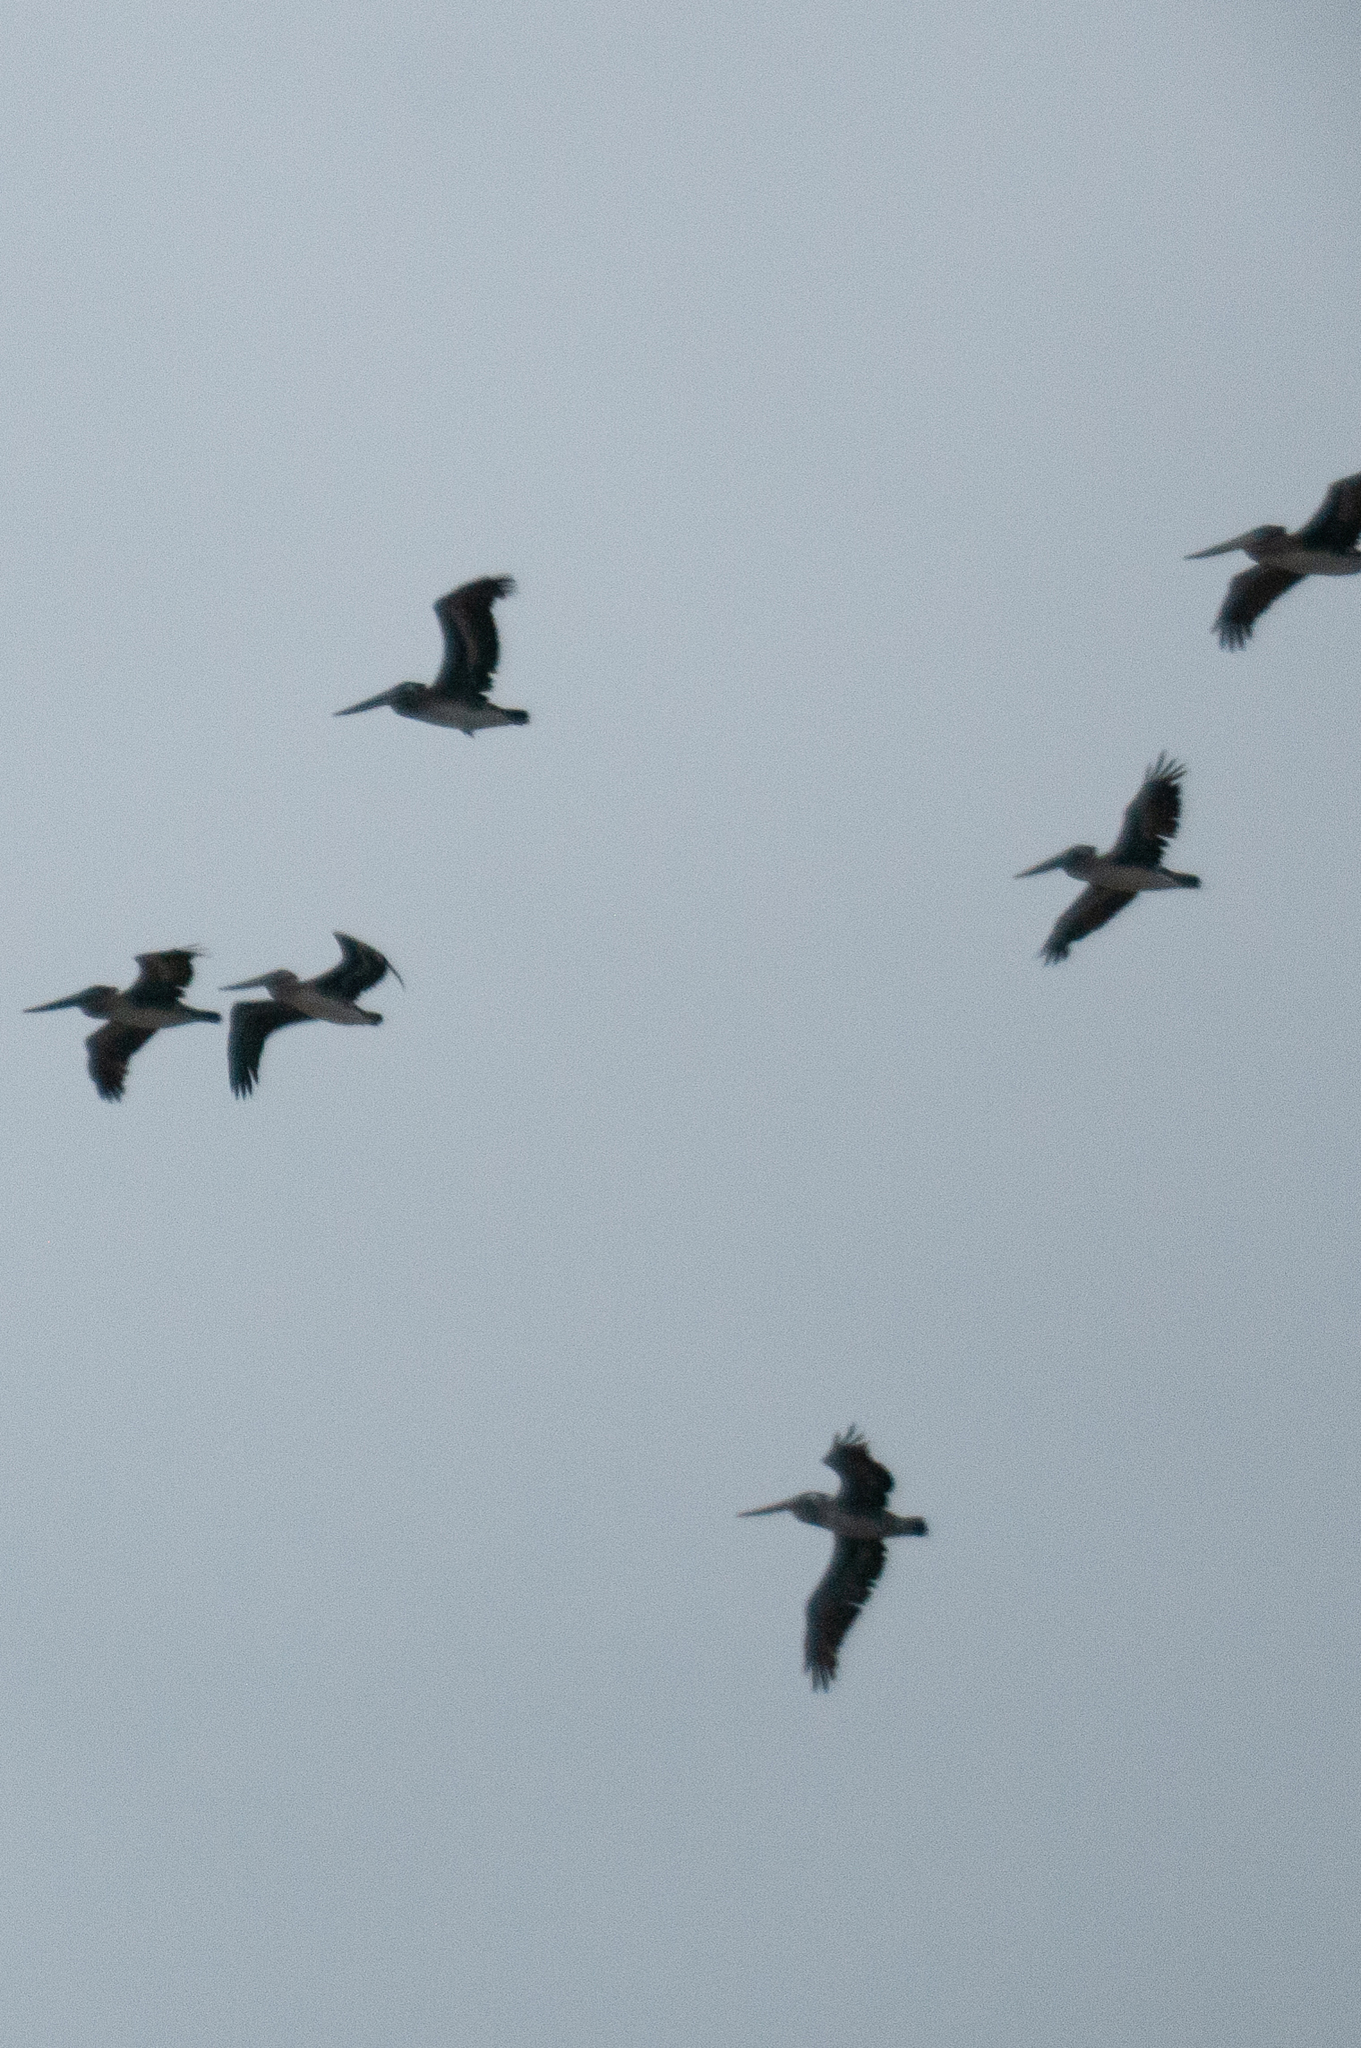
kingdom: Animalia
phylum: Chordata
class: Aves
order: Pelecaniformes
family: Pelecanidae
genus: Pelecanus
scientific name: Pelecanus occidentalis
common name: Brown pelican
